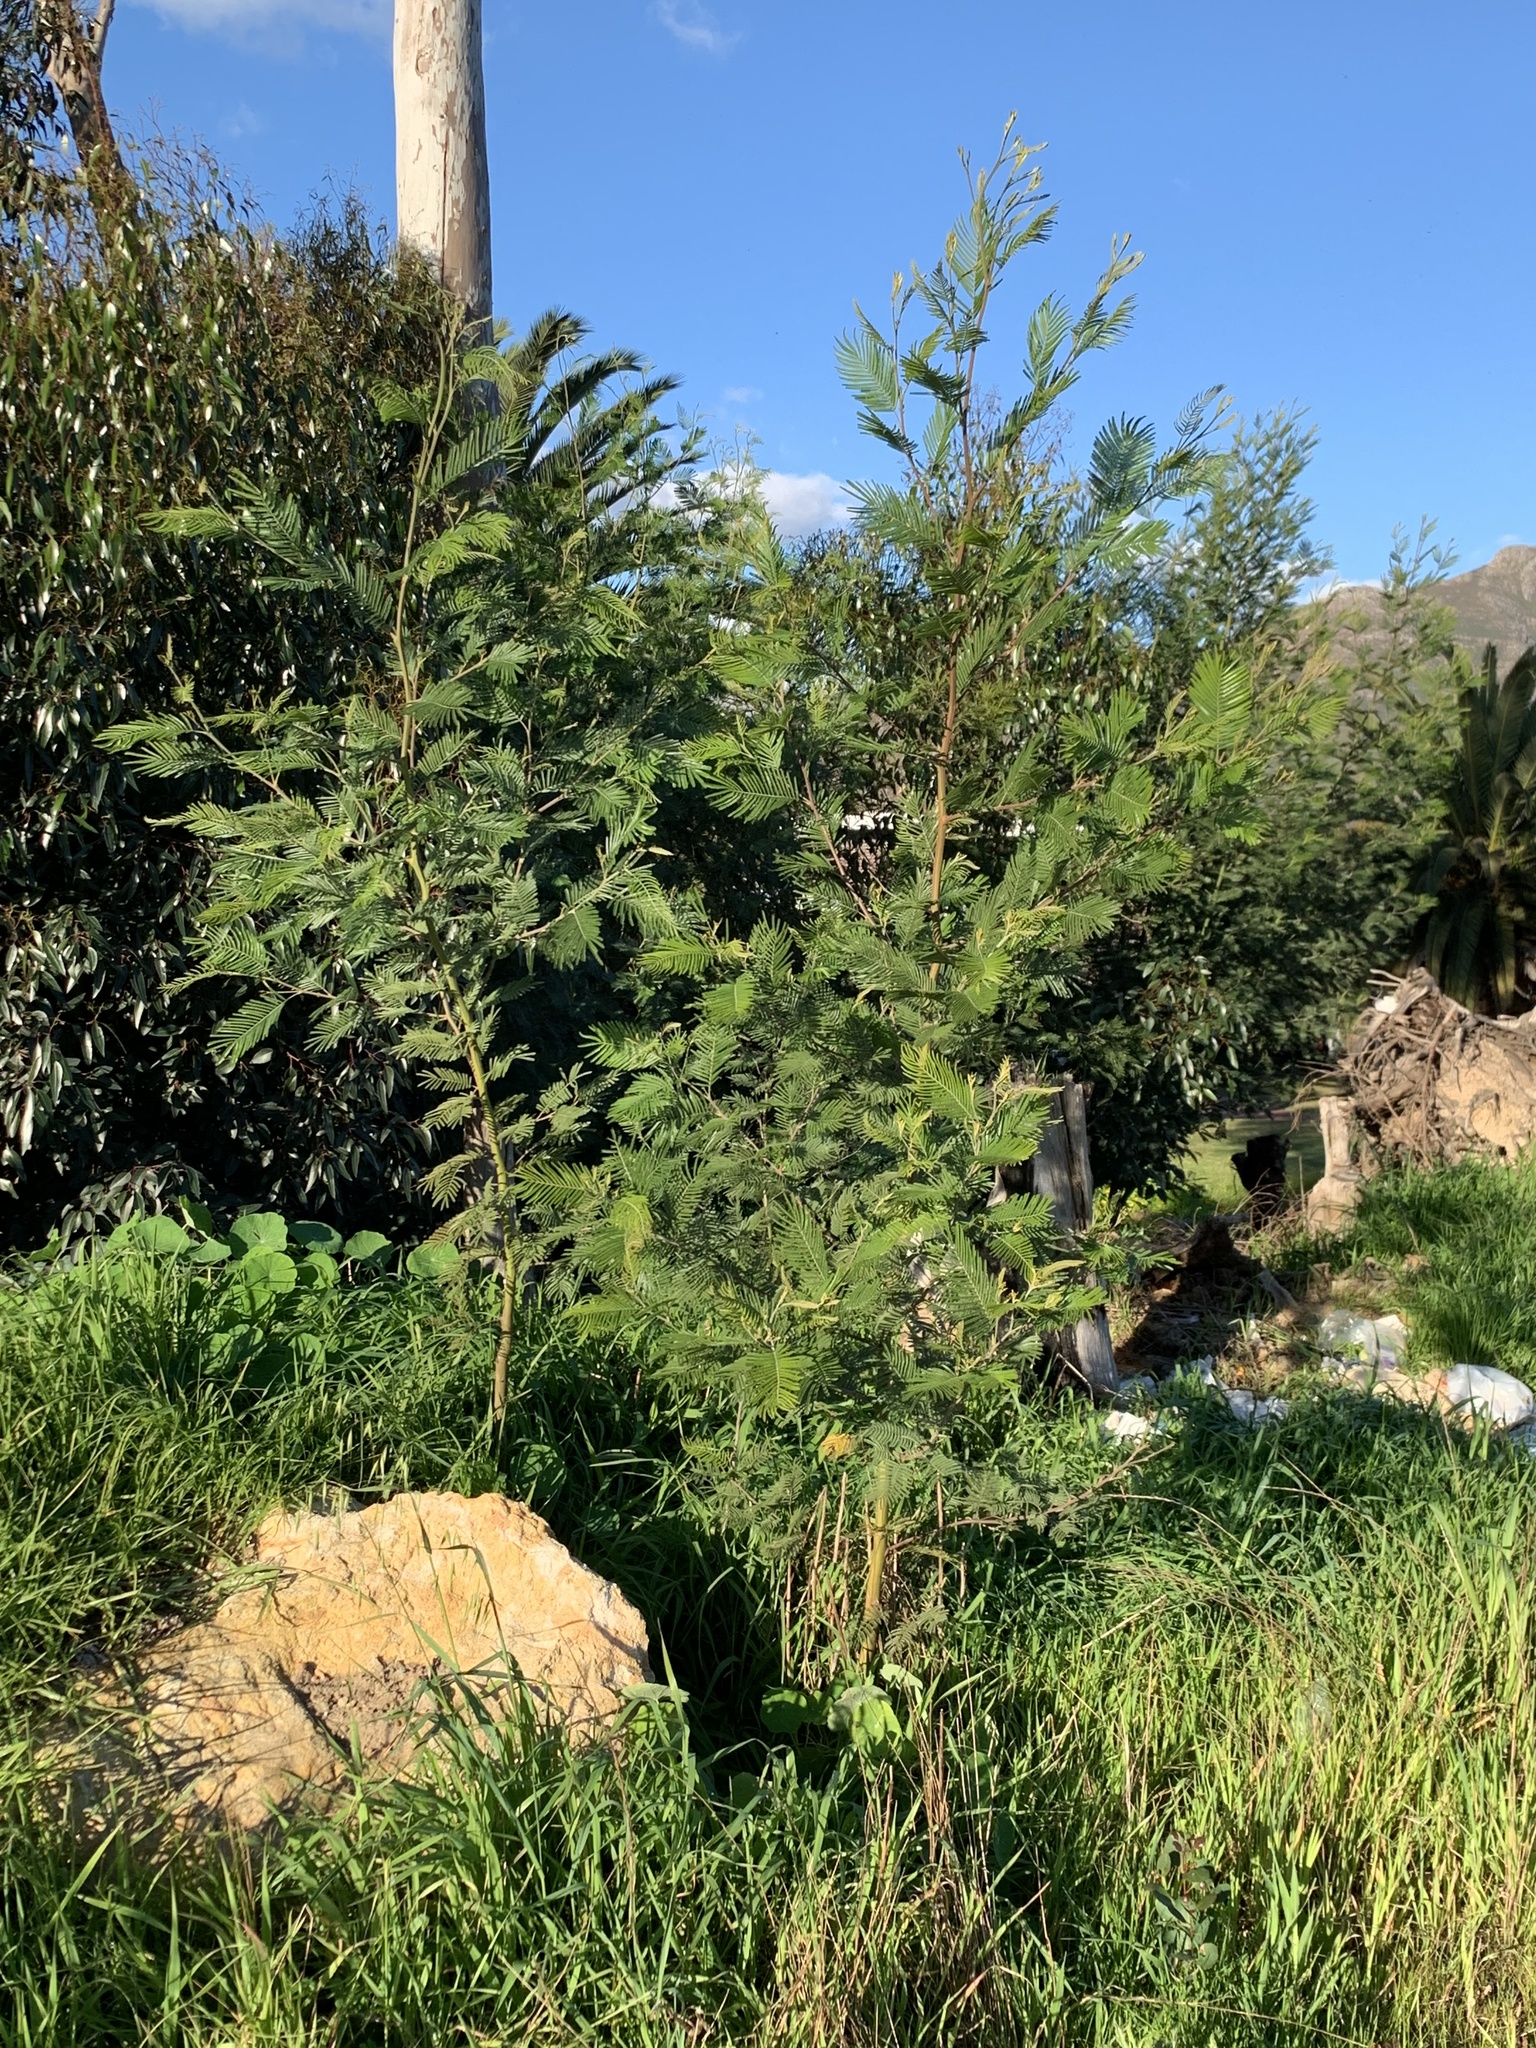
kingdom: Plantae
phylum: Tracheophyta
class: Magnoliopsida
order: Fabales
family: Fabaceae
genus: Acacia
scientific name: Acacia mearnsii
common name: Black wattle
